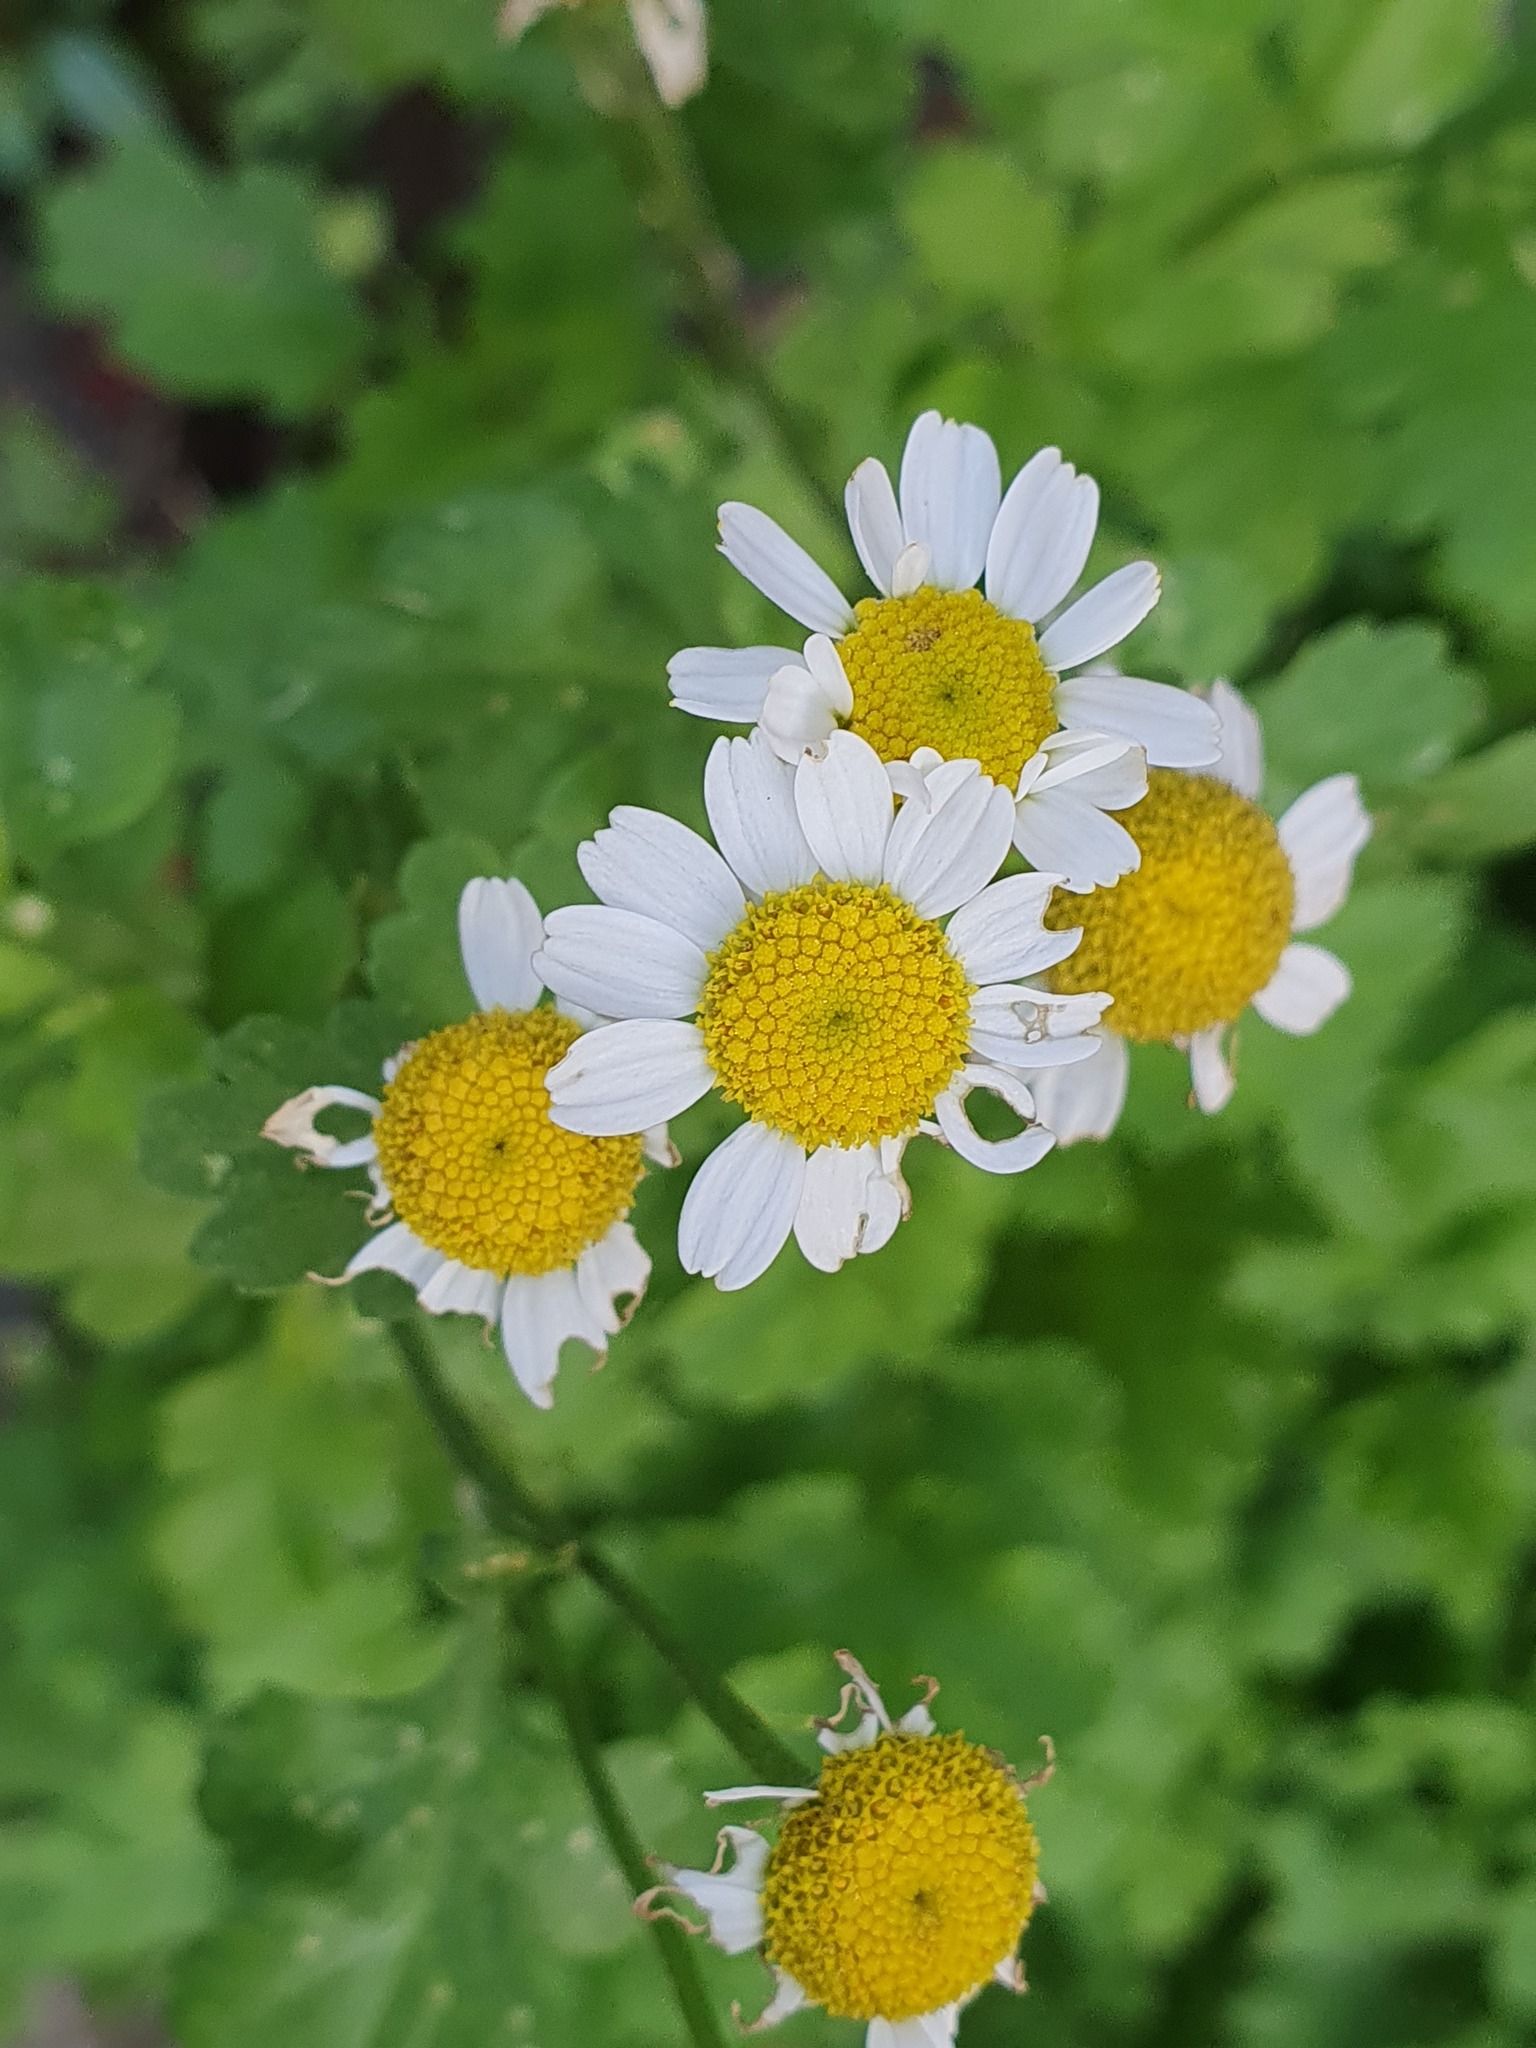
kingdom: Plantae
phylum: Tracheophyta
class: Magnoliopsida
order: Asterales
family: Asteraceae
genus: Tanacetum
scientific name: Tanacetum parthenium
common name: Feverfew
